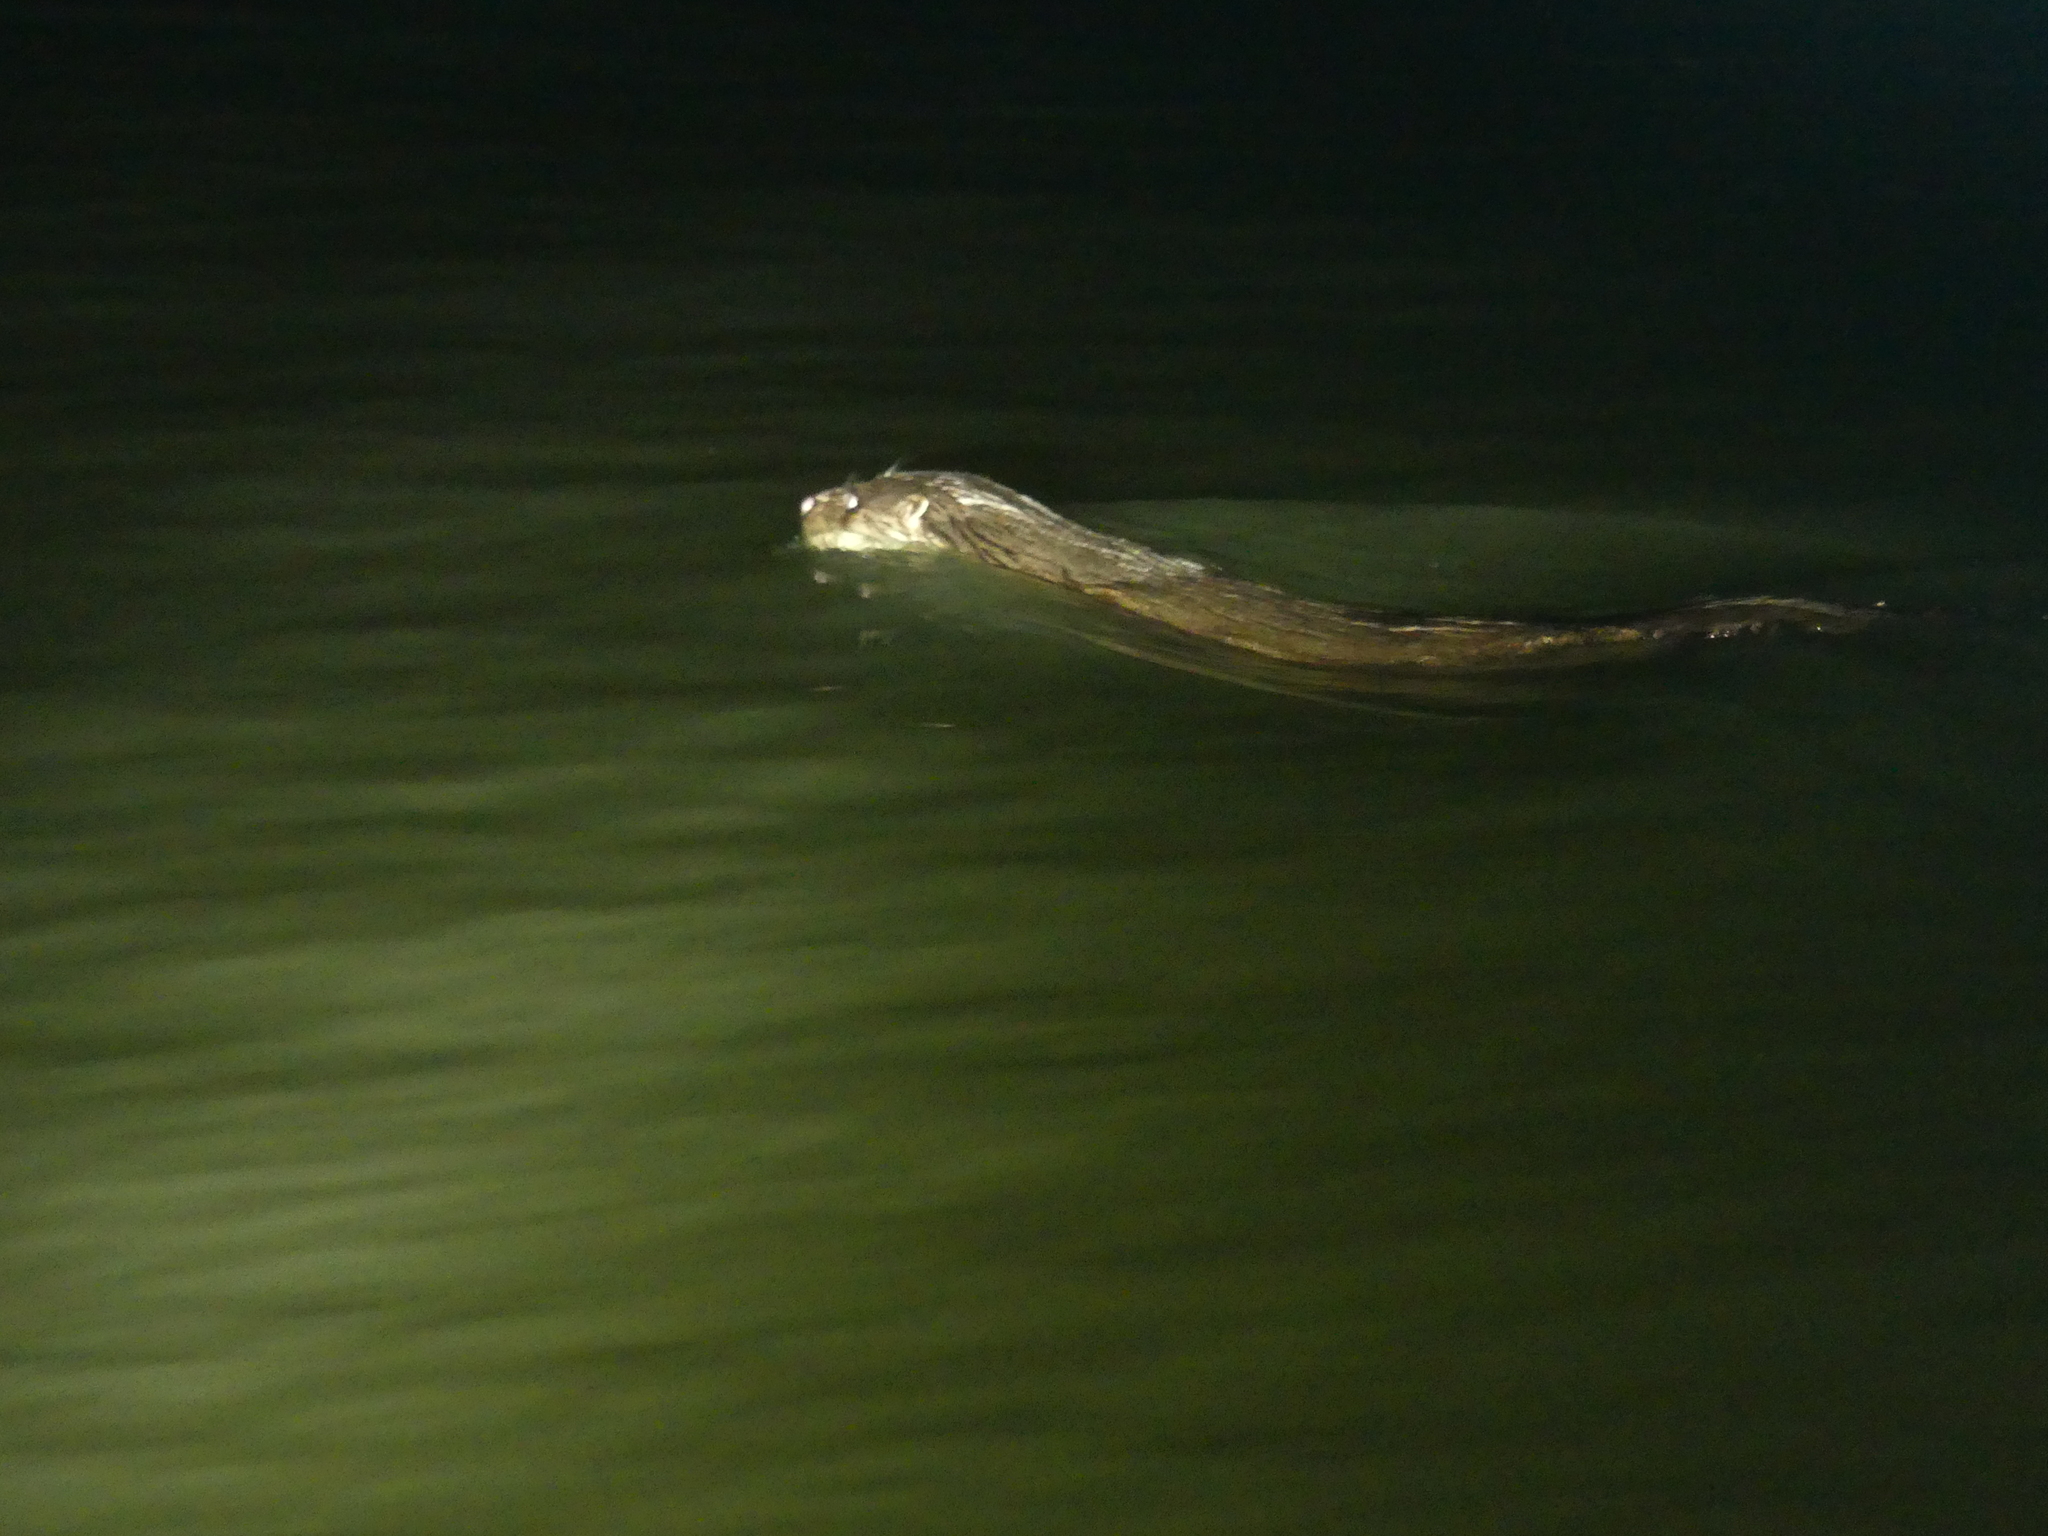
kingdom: Animalia
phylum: Chordata
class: Mammalia
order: Carnivora
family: Mustelidae
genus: Lutra
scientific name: Lutra lutra
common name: European otter
